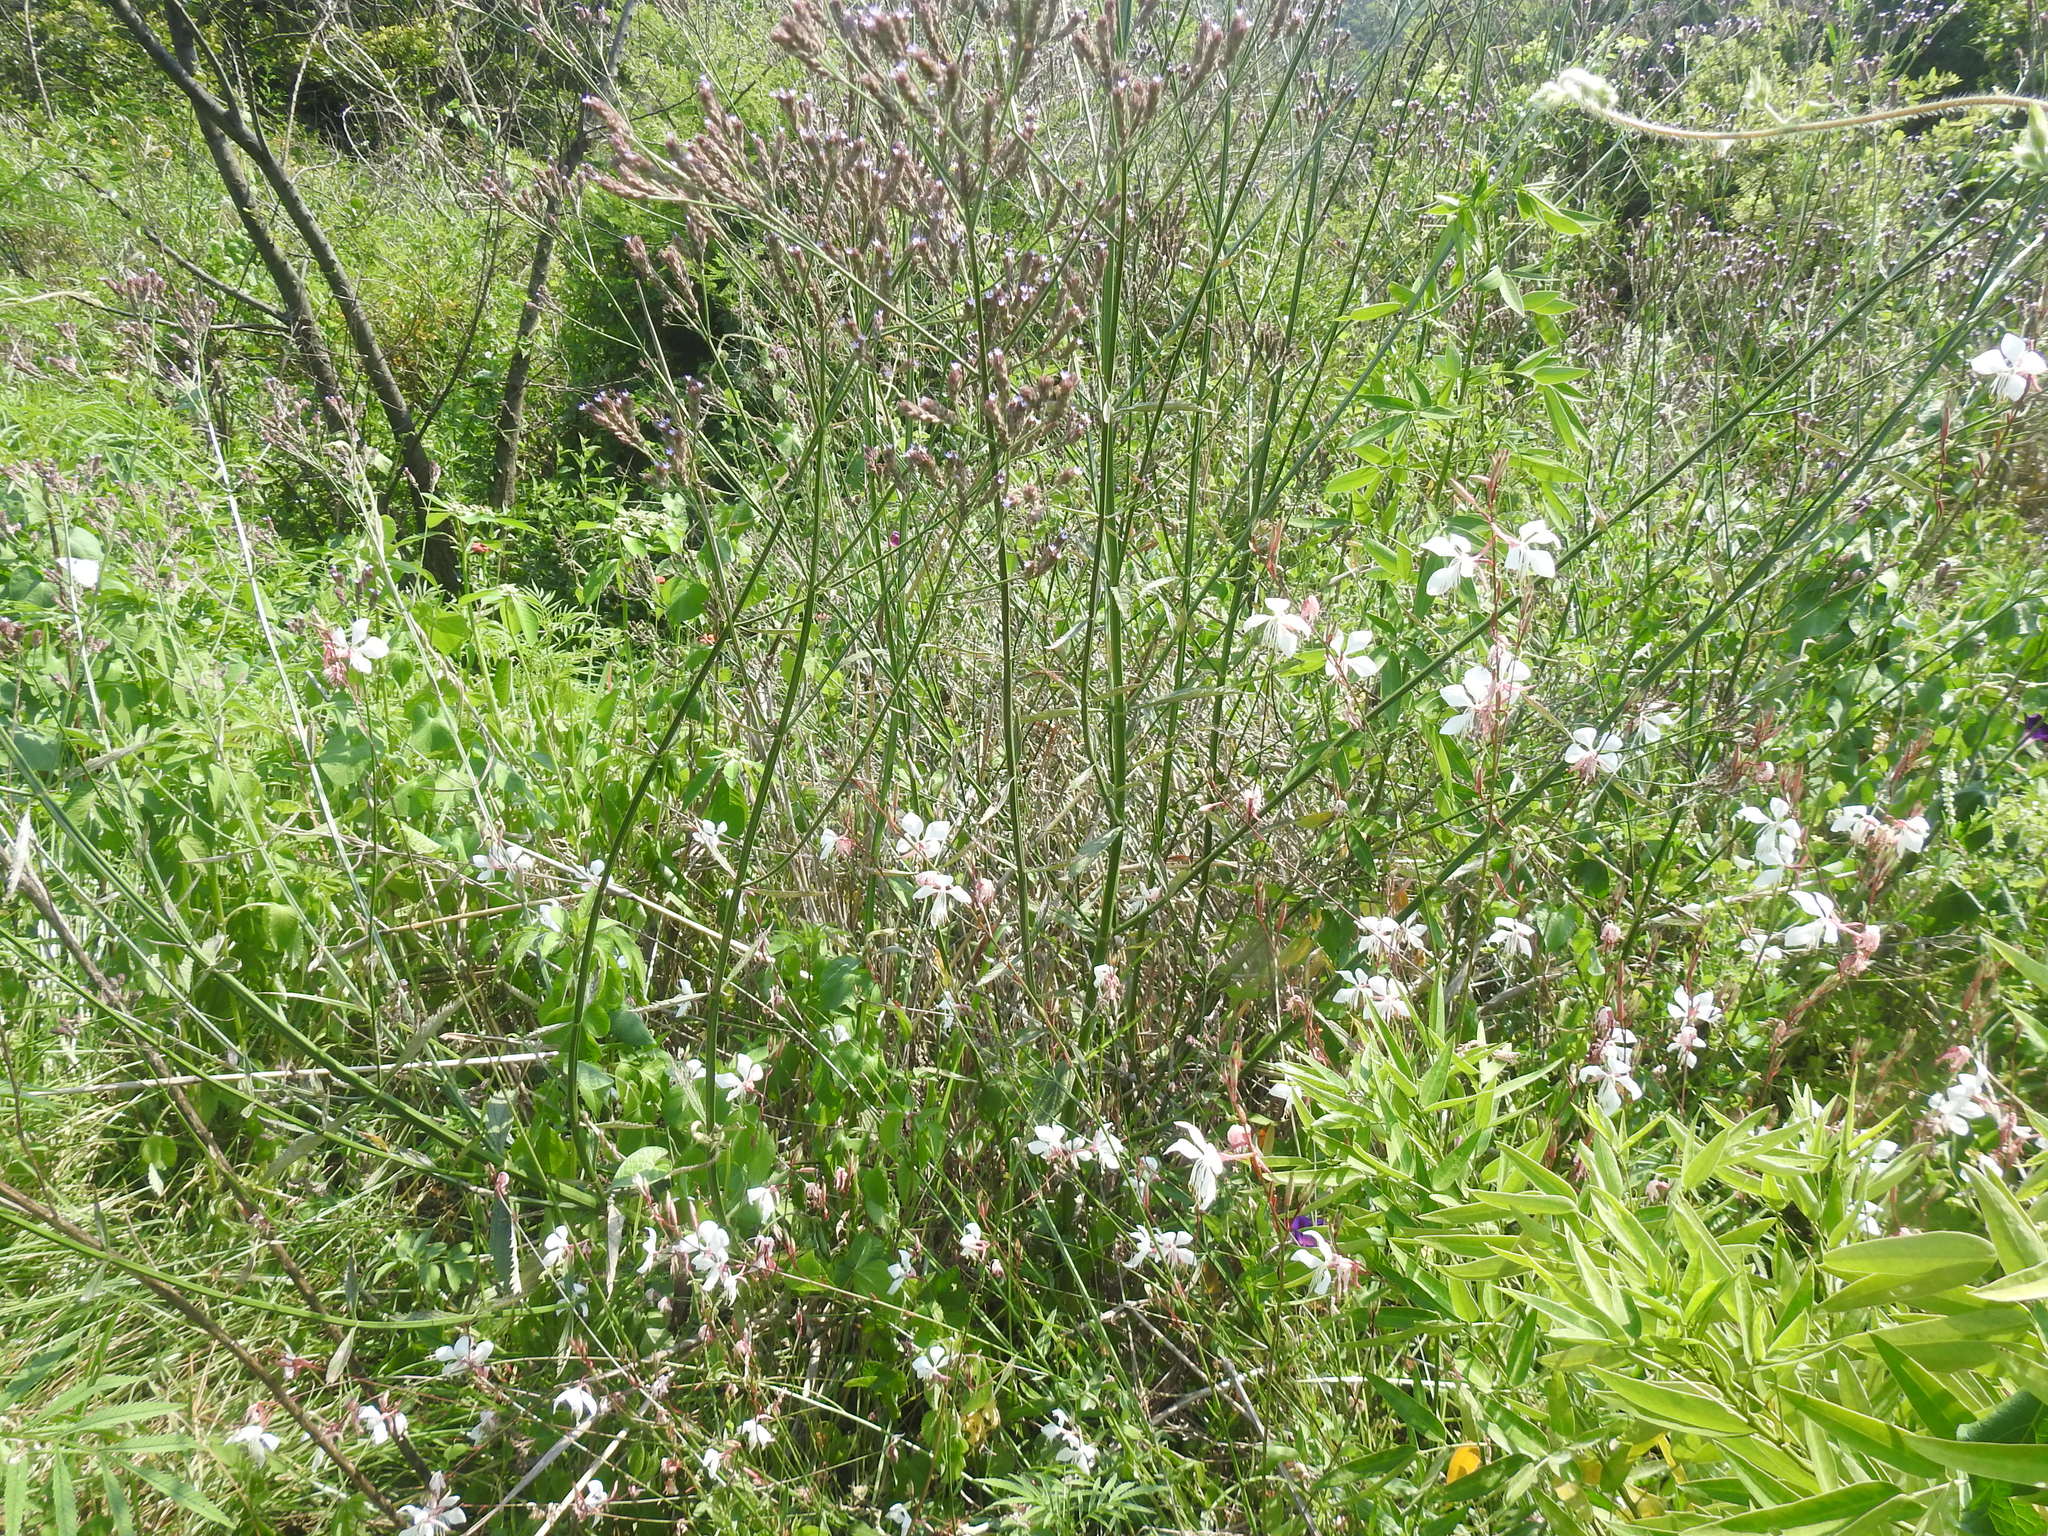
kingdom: Plantae
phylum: Tracheophyta
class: Magnoliopsida
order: Myrtales
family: Onagraceae
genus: Oenothera
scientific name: Oenothera lindheimeri
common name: Lindheimer's beeblossom
